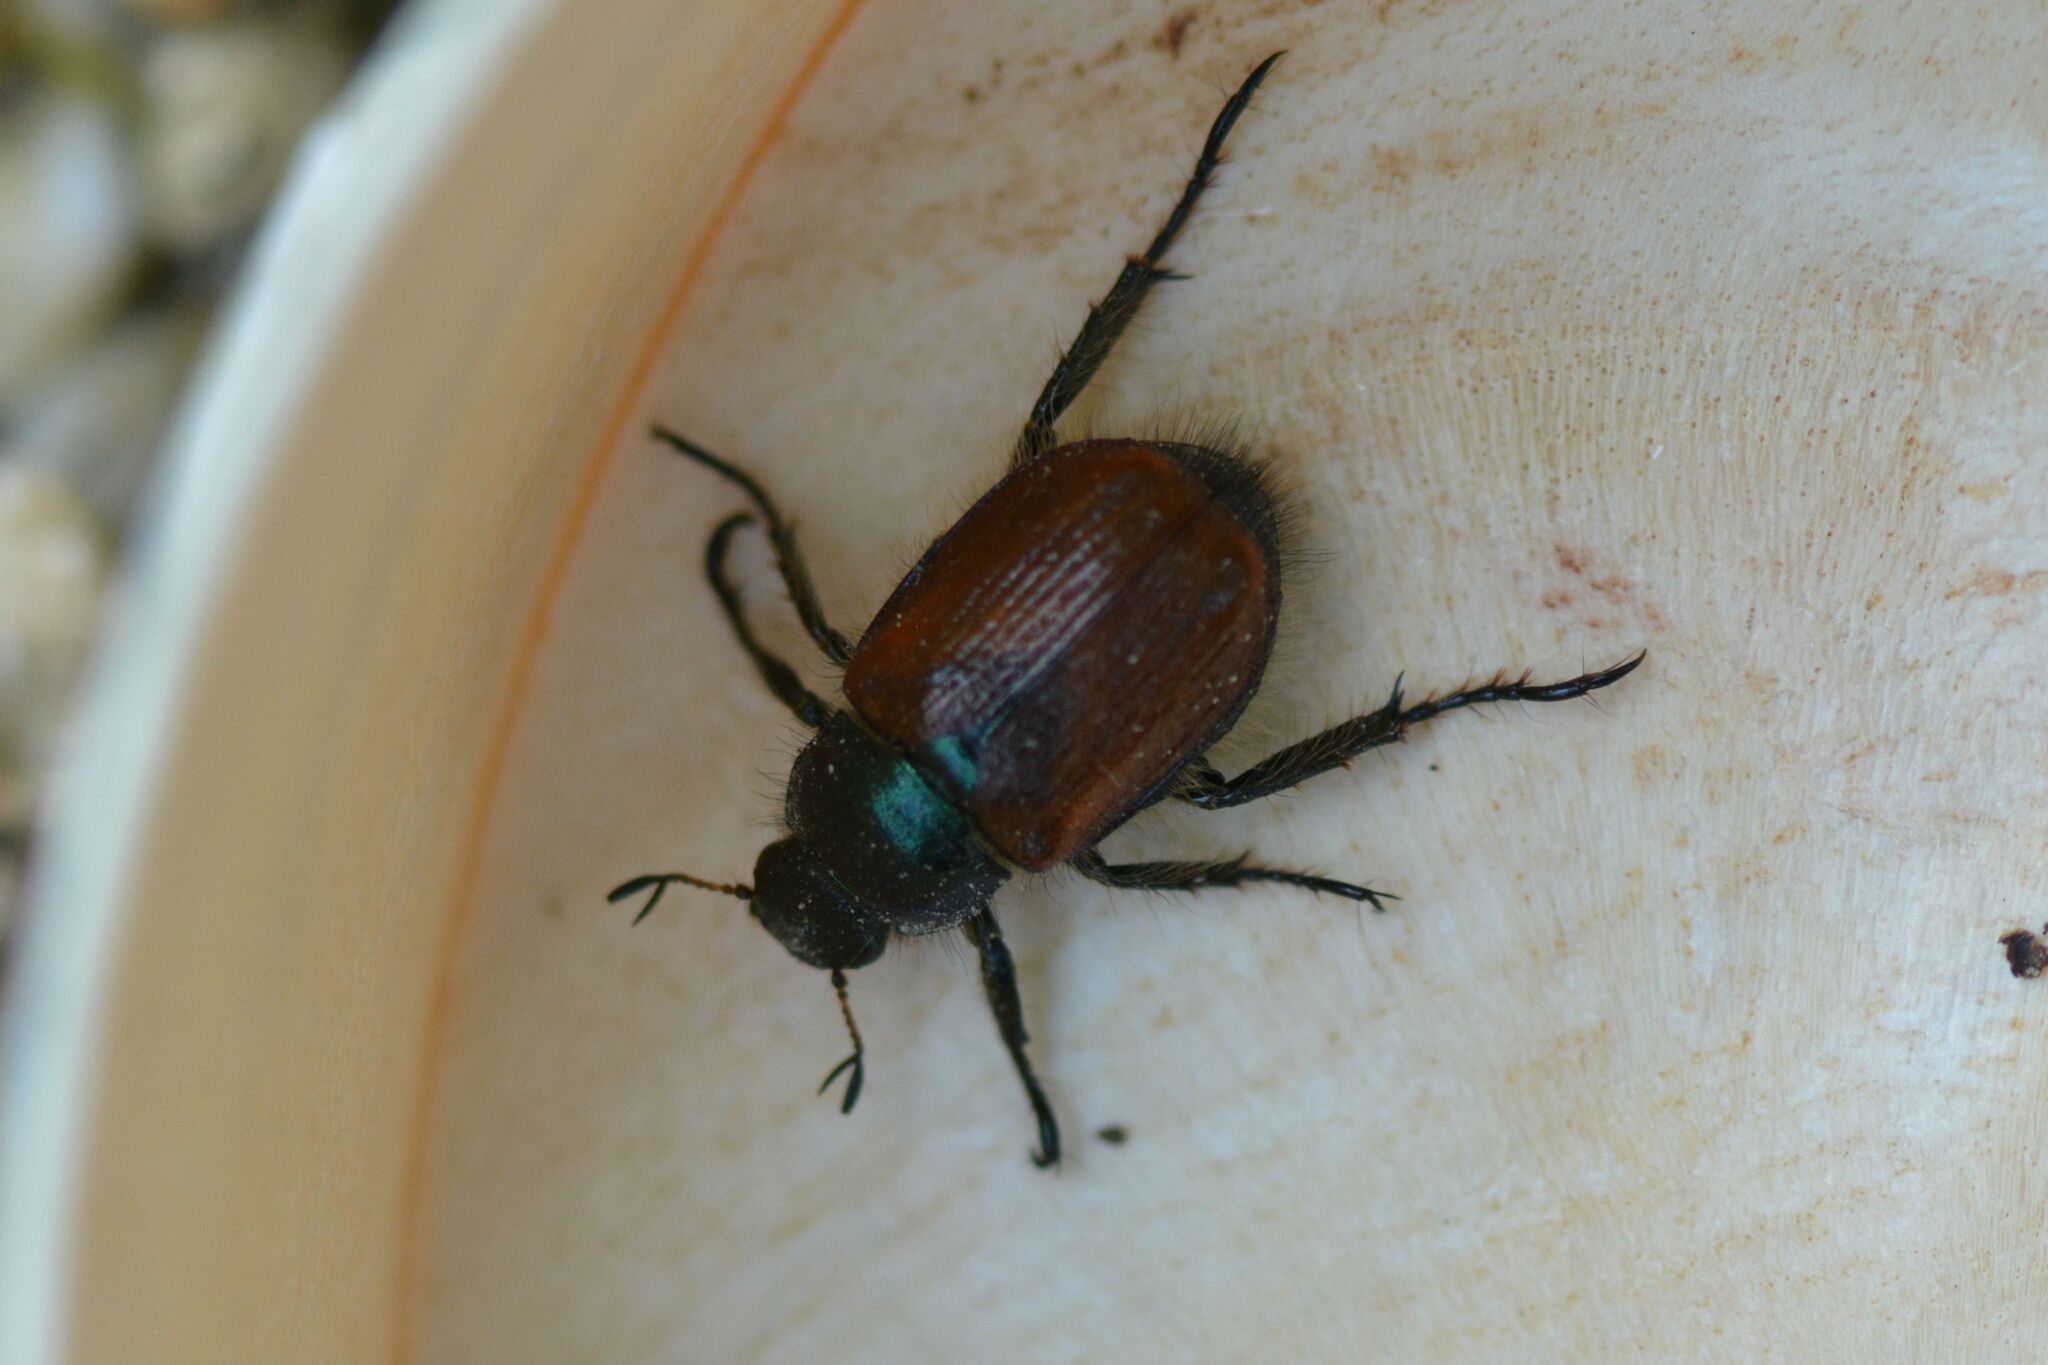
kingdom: Animalia
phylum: Arthropoda
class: Insecta
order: Coleoptera
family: Scarabaeidae
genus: Phyllopertha
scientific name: Phyllopertha horticola
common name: Garden chafer
